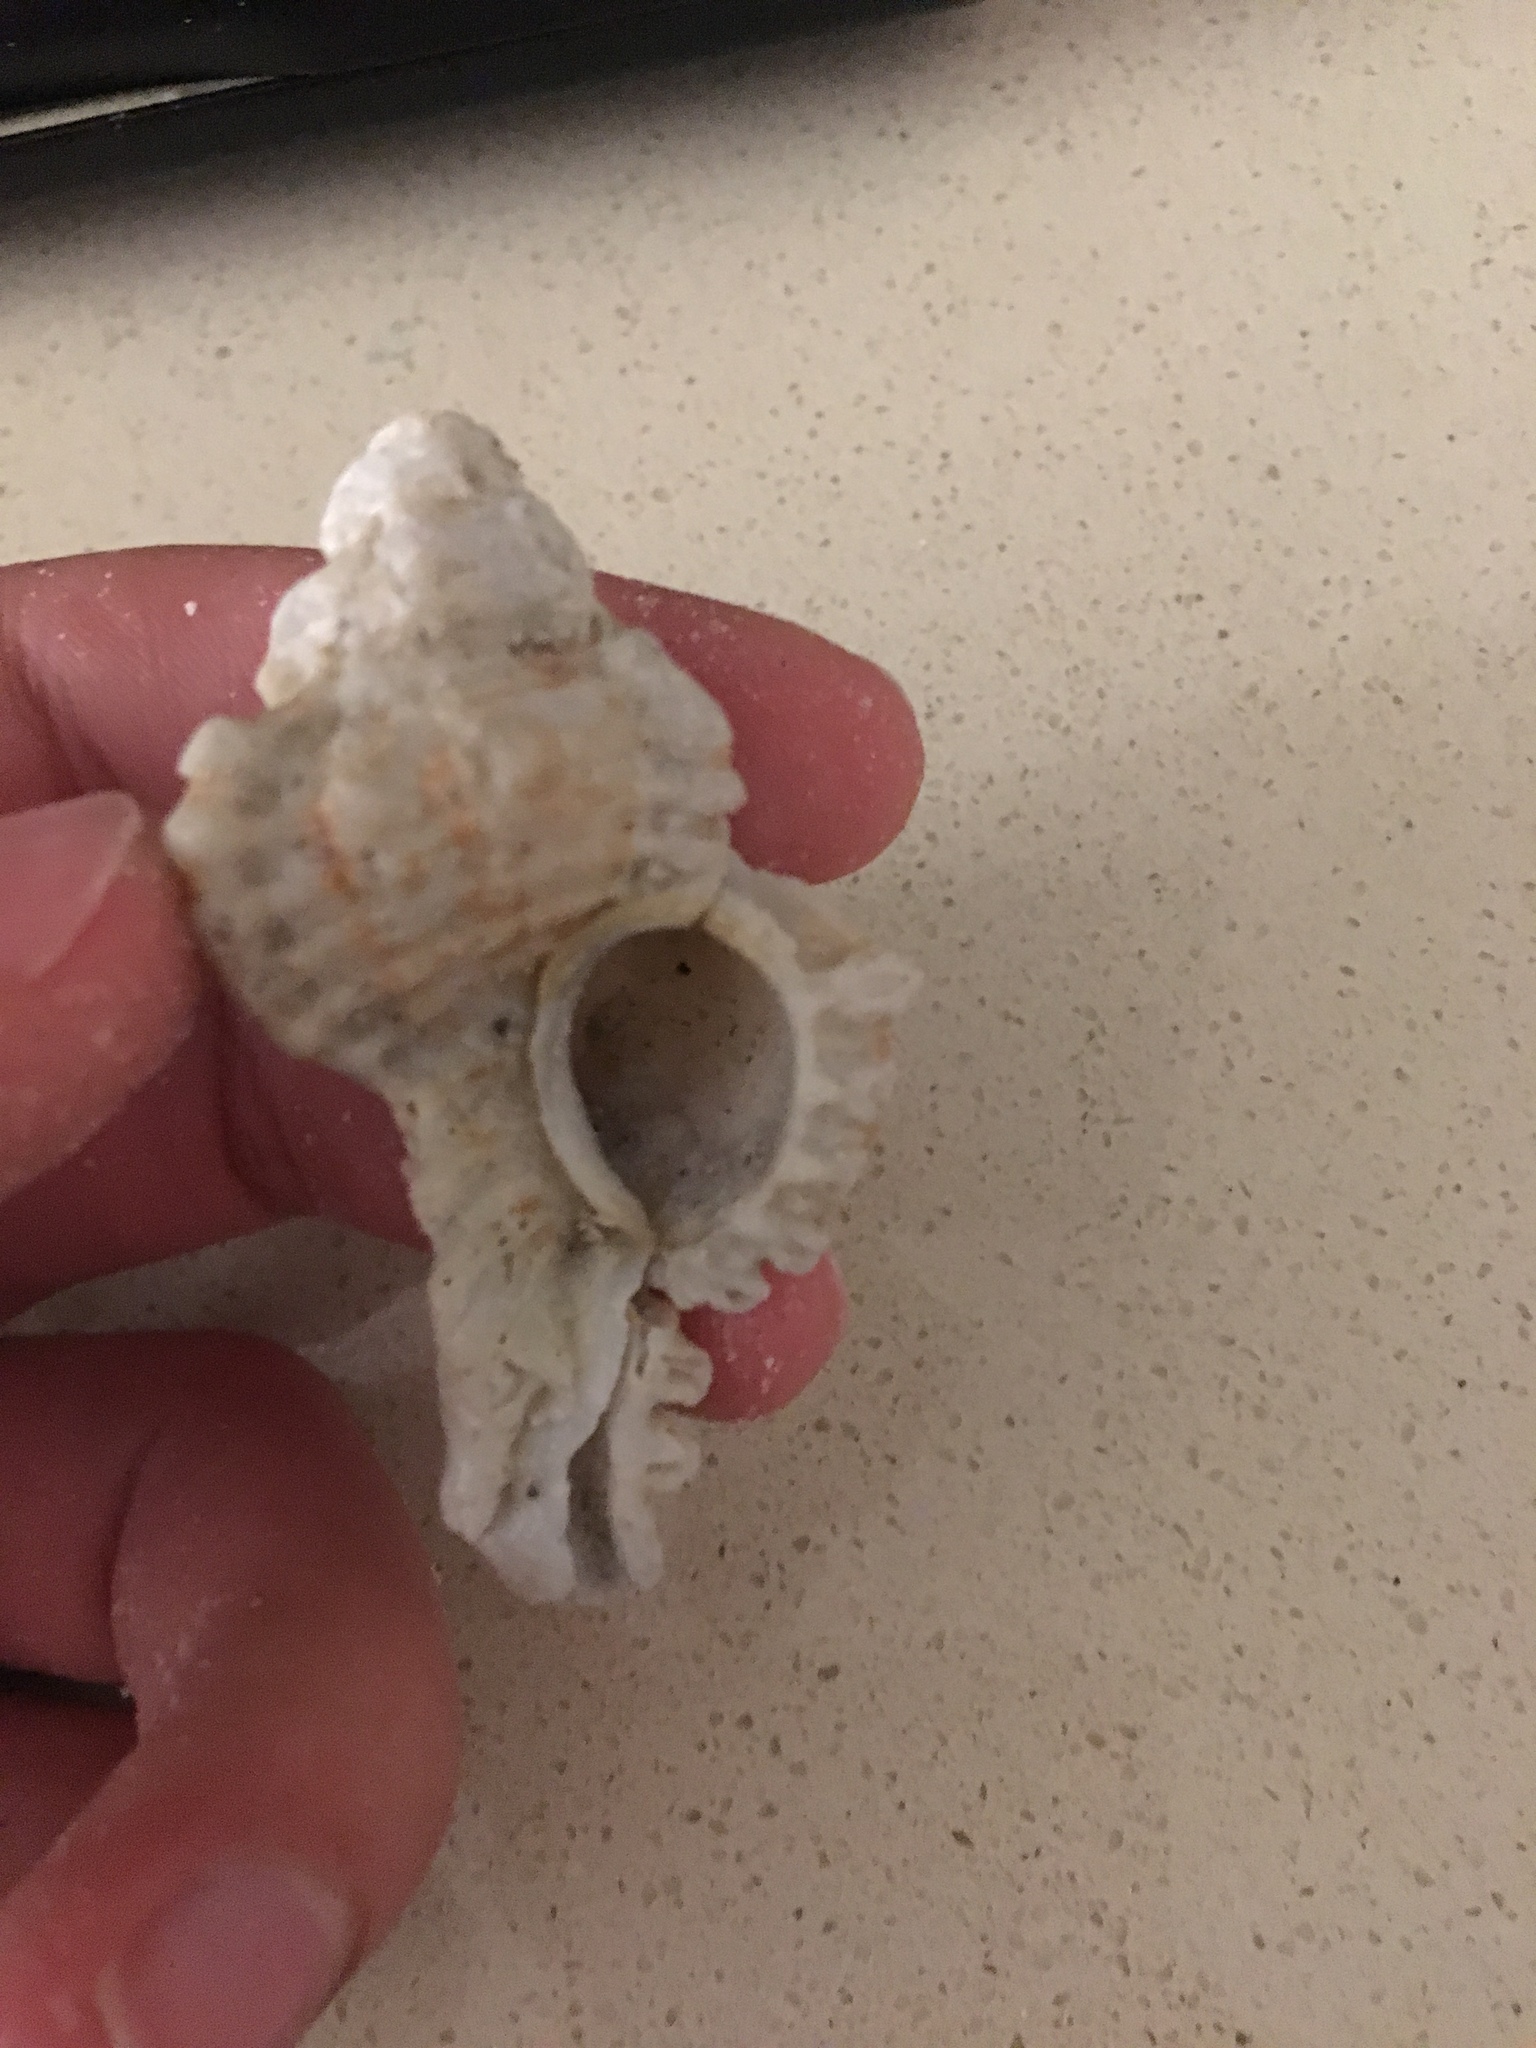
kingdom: Animalia
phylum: Mollusca
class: Gastropoda
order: Neogastropoda
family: Muricidae
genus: Chicoreus
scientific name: Chicoreus florifer
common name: Flowery lace murex
